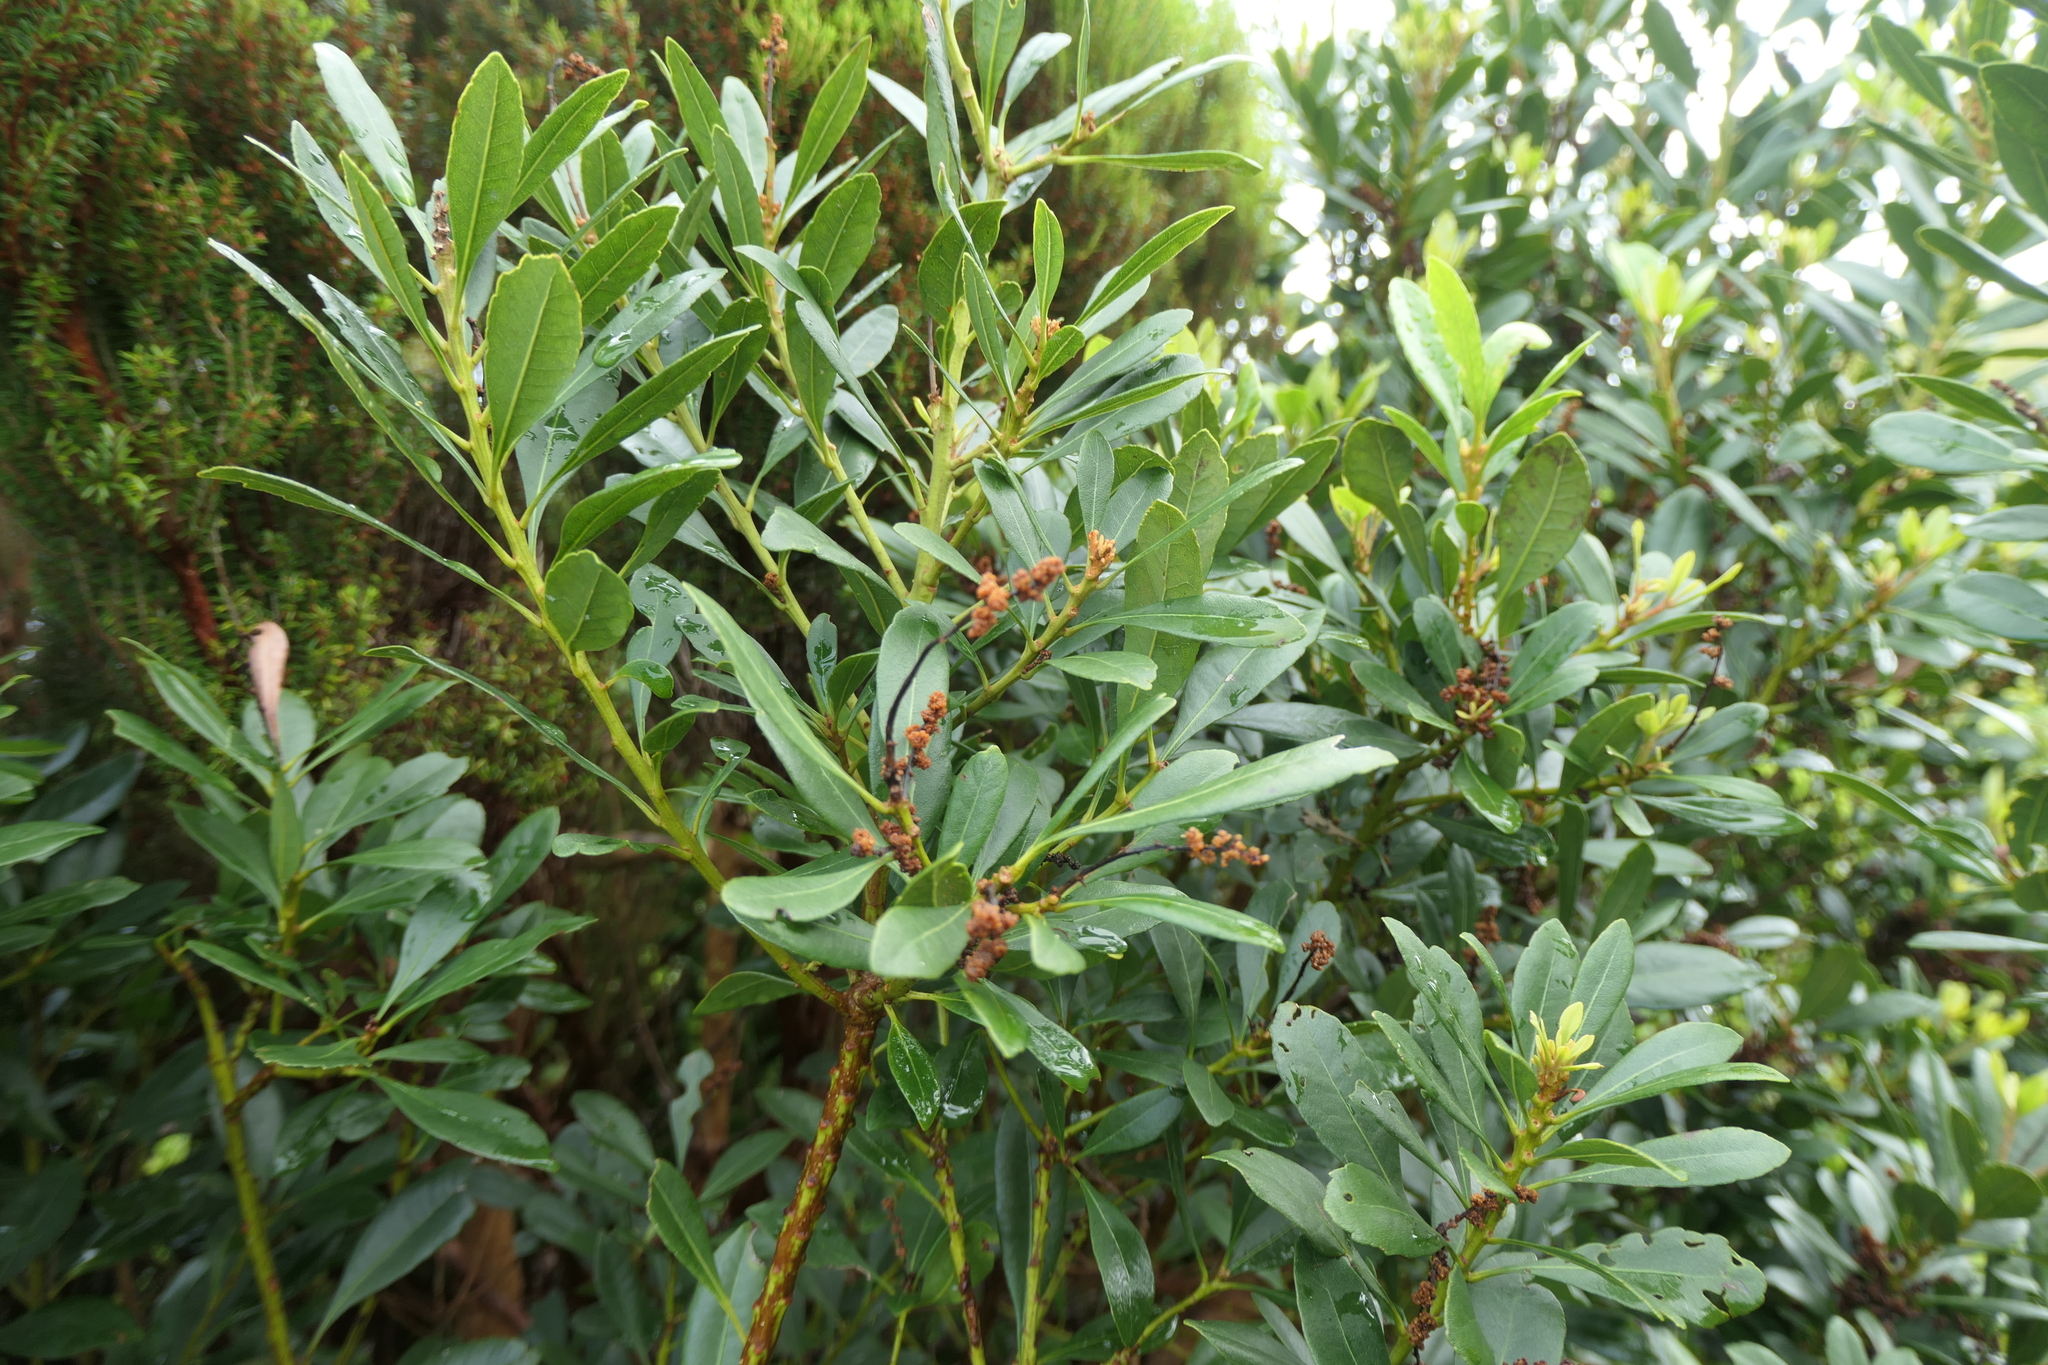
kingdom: Plantae
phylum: Tracheophyta
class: Magnoliopsida
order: Fagales
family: Myricaceae
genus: Morella
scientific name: Morella faya
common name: Firetree
